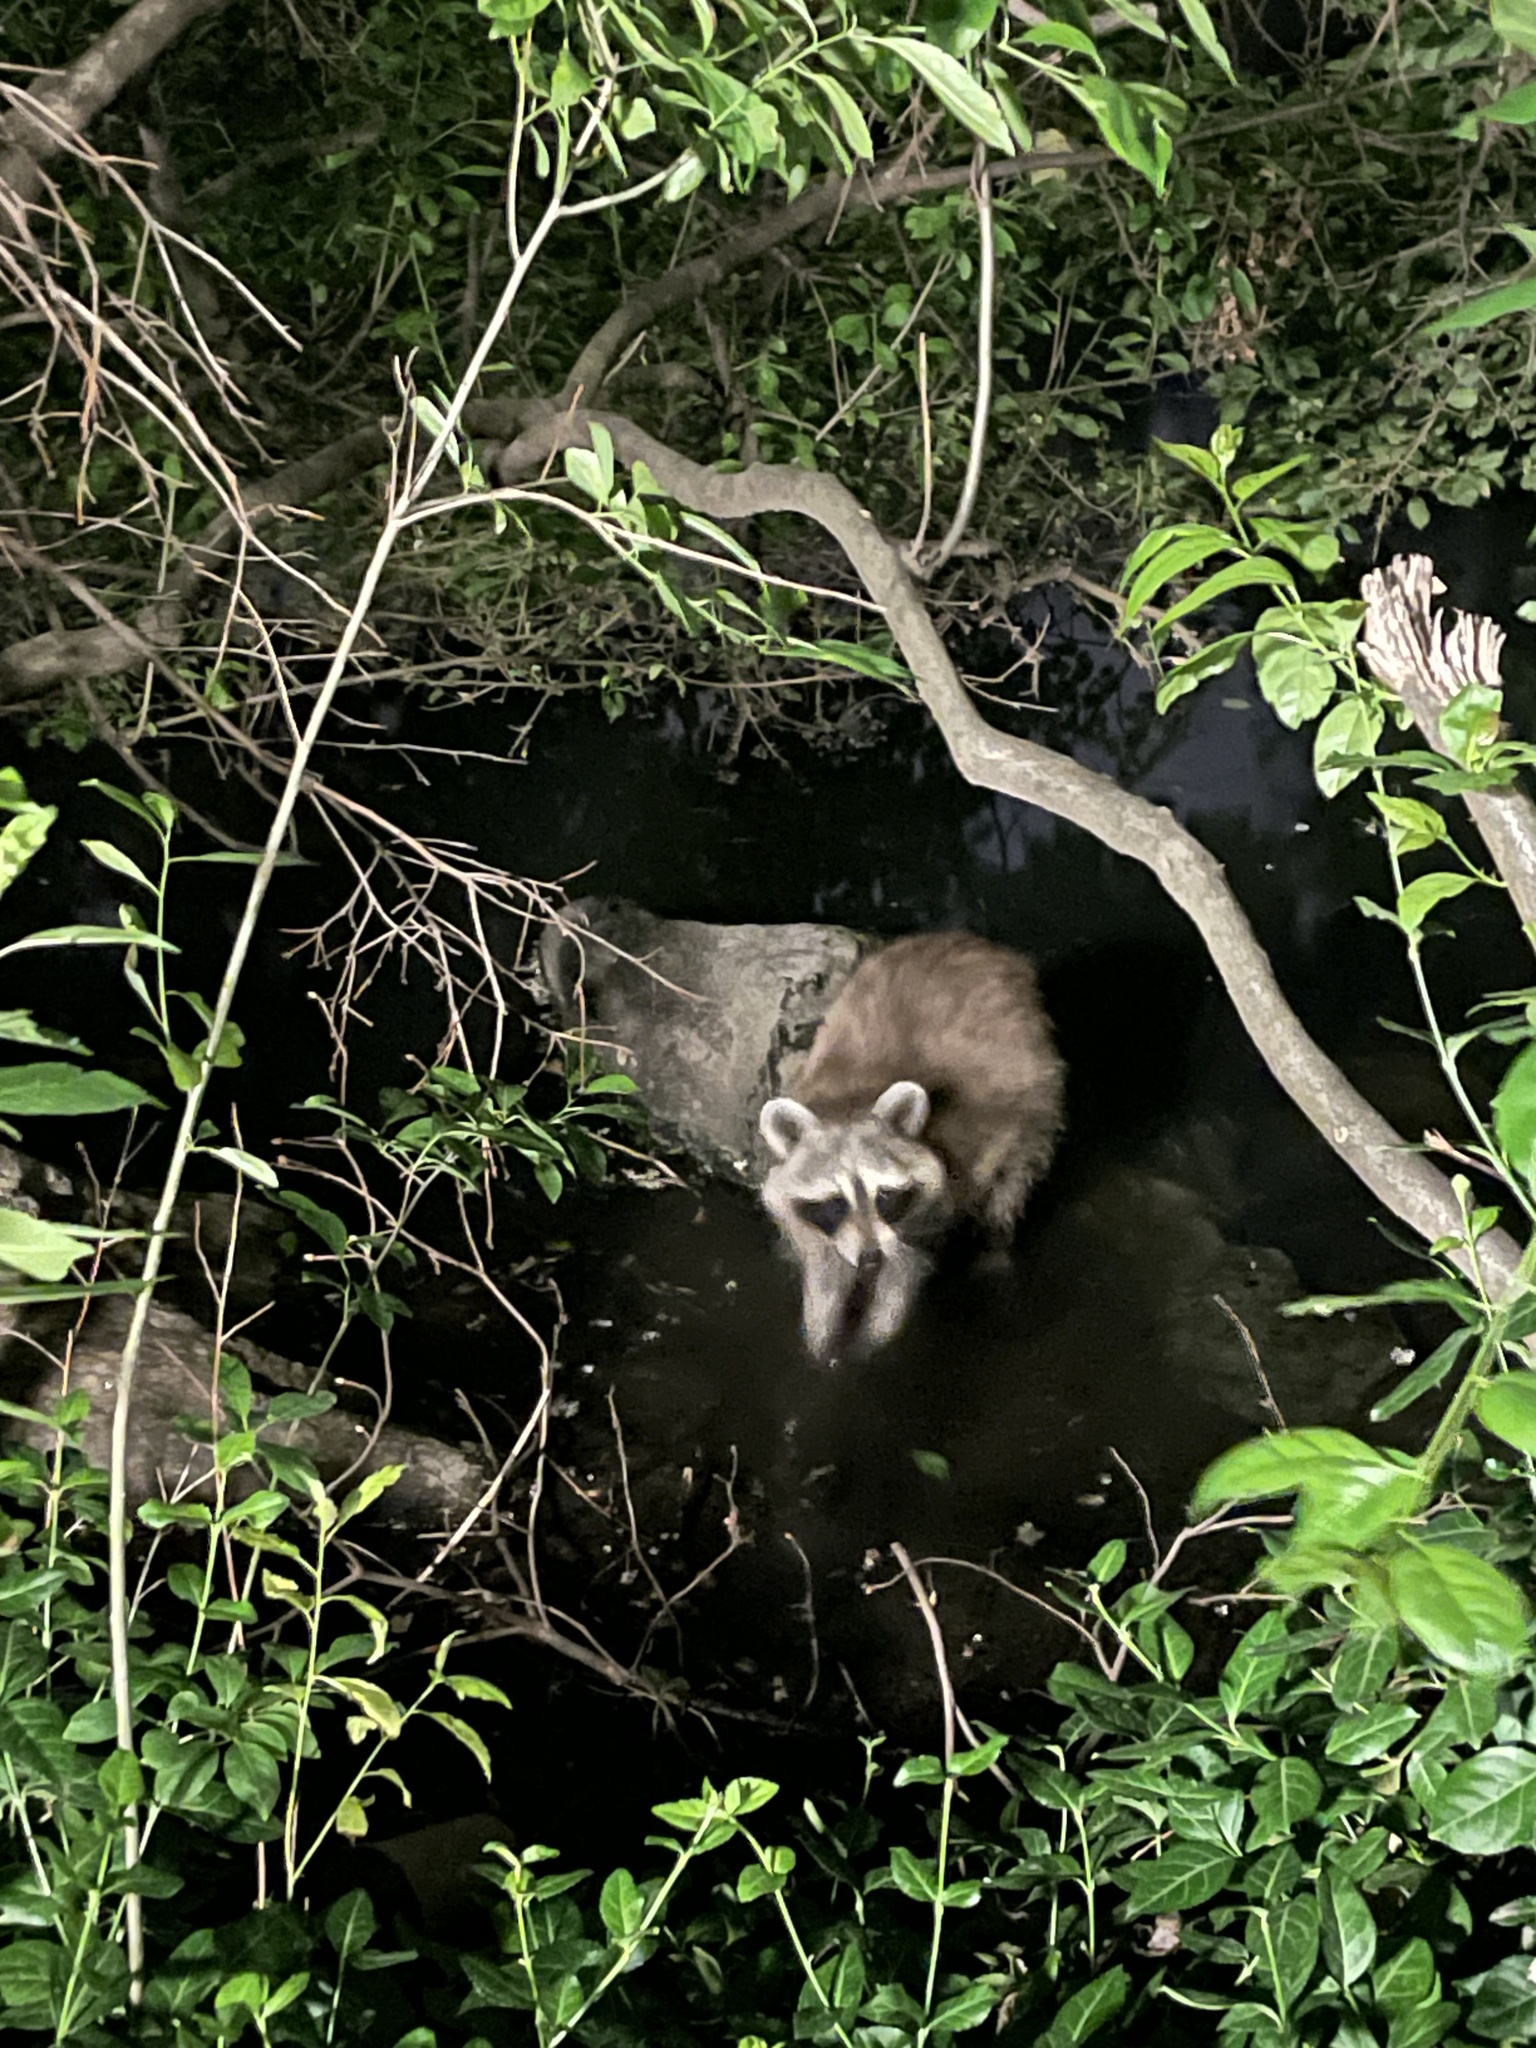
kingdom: Animalia
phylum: Chordata
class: Mammalia
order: Carnivora
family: Procyonidae
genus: Procyon
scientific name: Procyon lotor
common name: Raccoon
